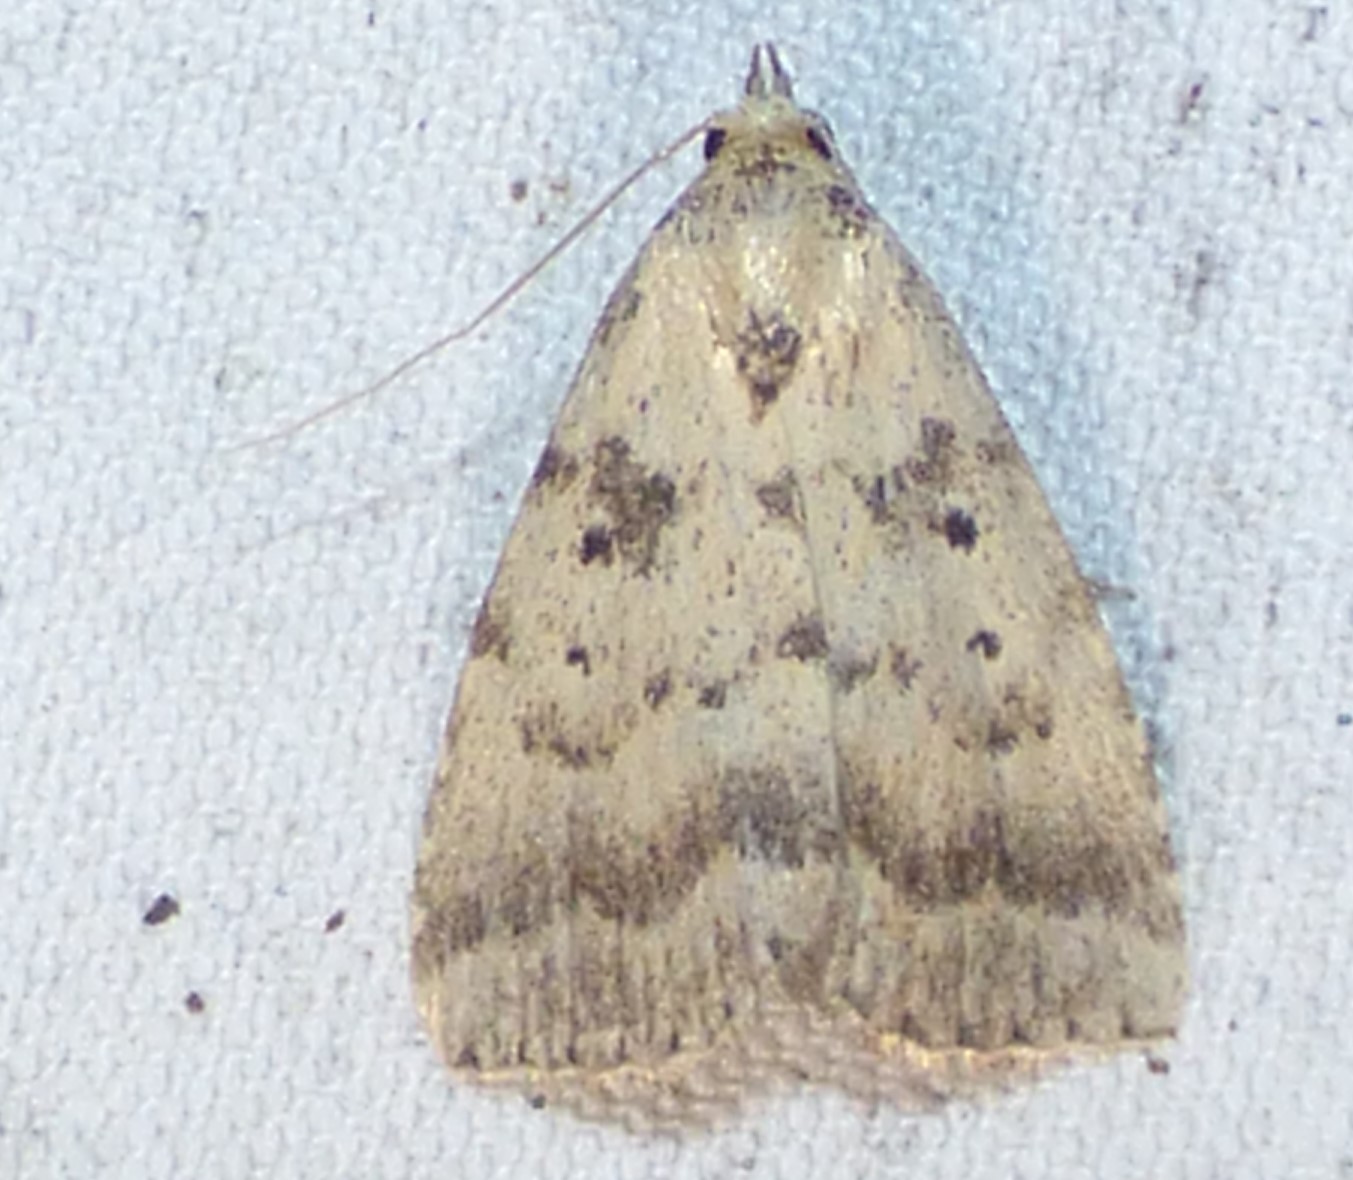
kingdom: Animalia
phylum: Arthropoda
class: Insecta
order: Lepidoptera
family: Erebidae
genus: Arugisa
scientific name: Arugisa lutea
